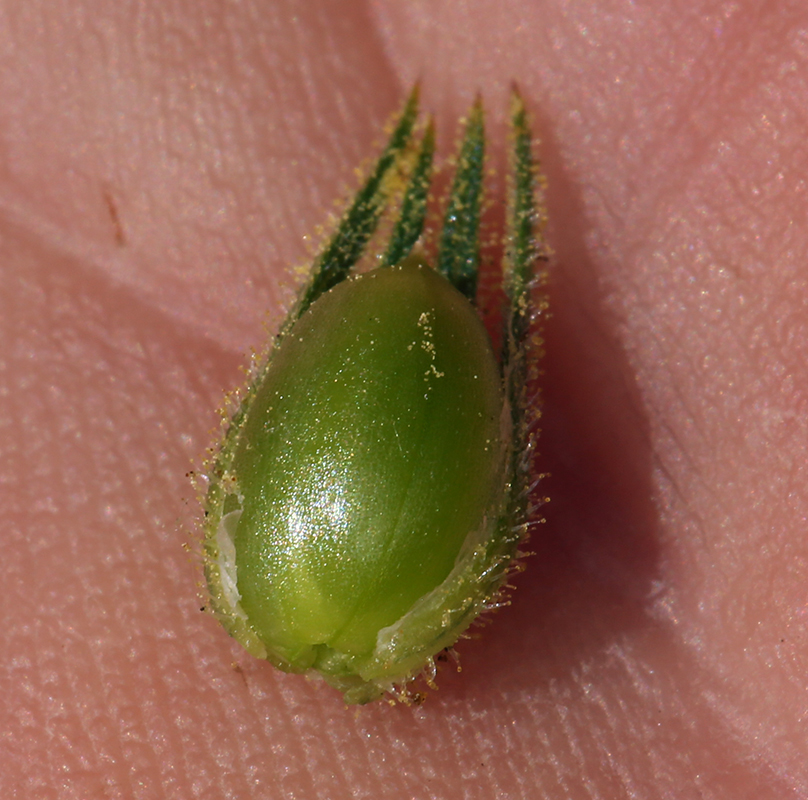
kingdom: Plantae
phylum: Tracheophyta
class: Magnoliopsida
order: Solanales
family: Solanaceae
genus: Nicotiana
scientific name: Nicotiana attenuata
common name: Coyote tobacco
